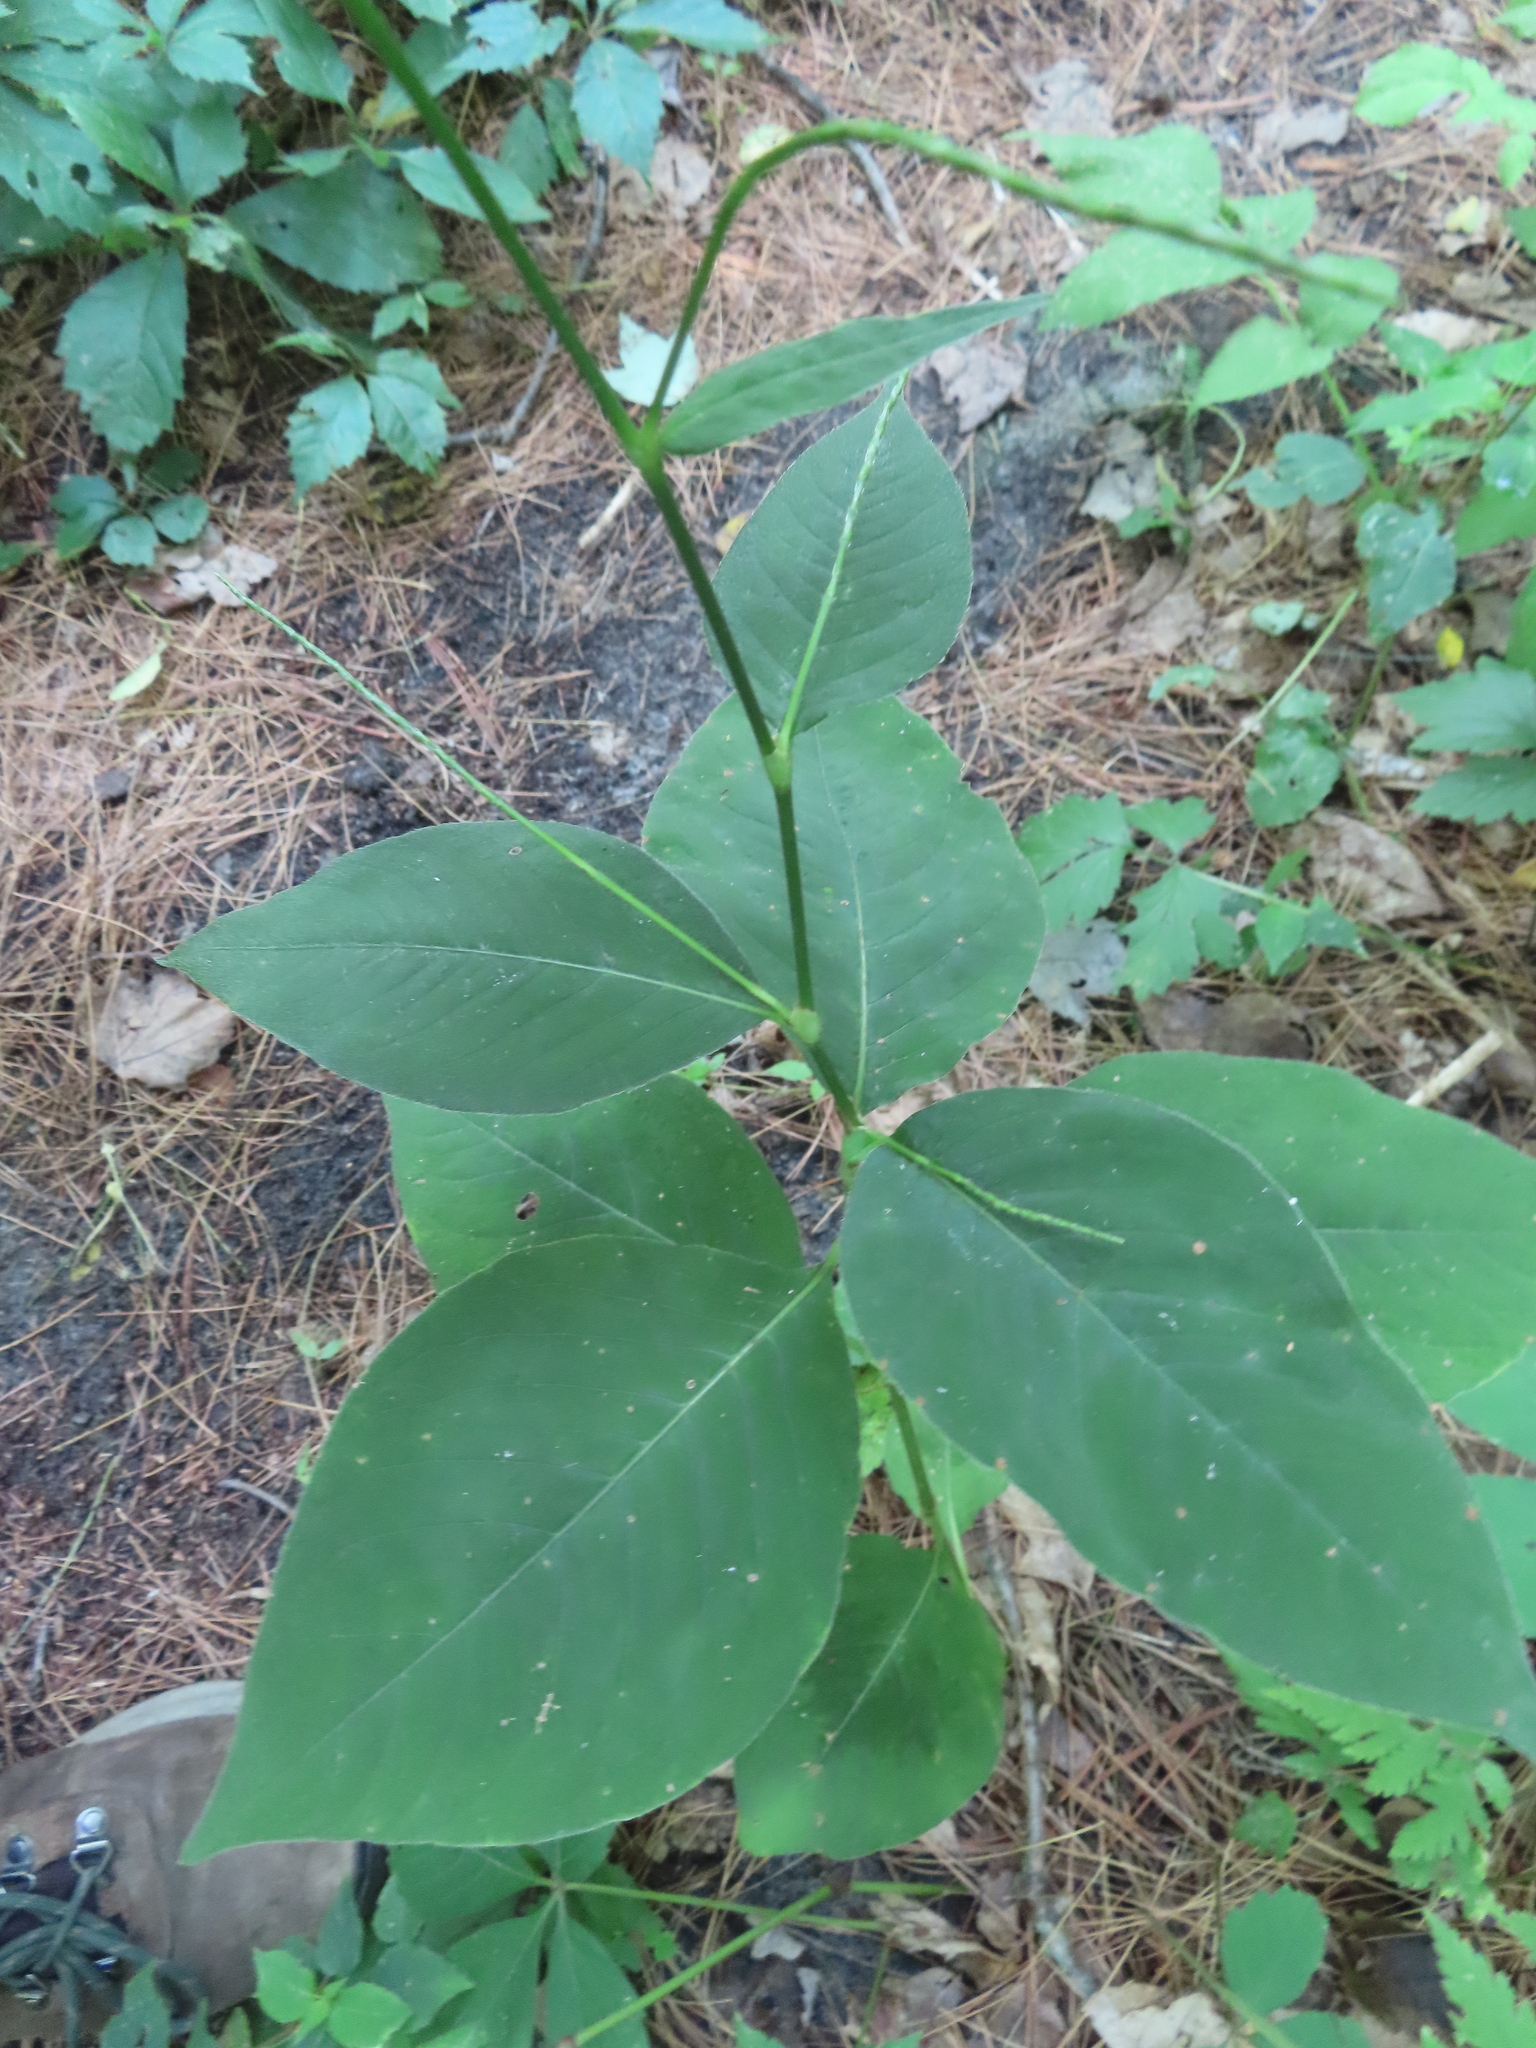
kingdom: Plantae
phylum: Tracheophyta
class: Magnoliopsida
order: Caryophyllales
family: Polygonaceae
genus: Persicaria
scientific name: Persicaria virginiana
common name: Jumpseed
